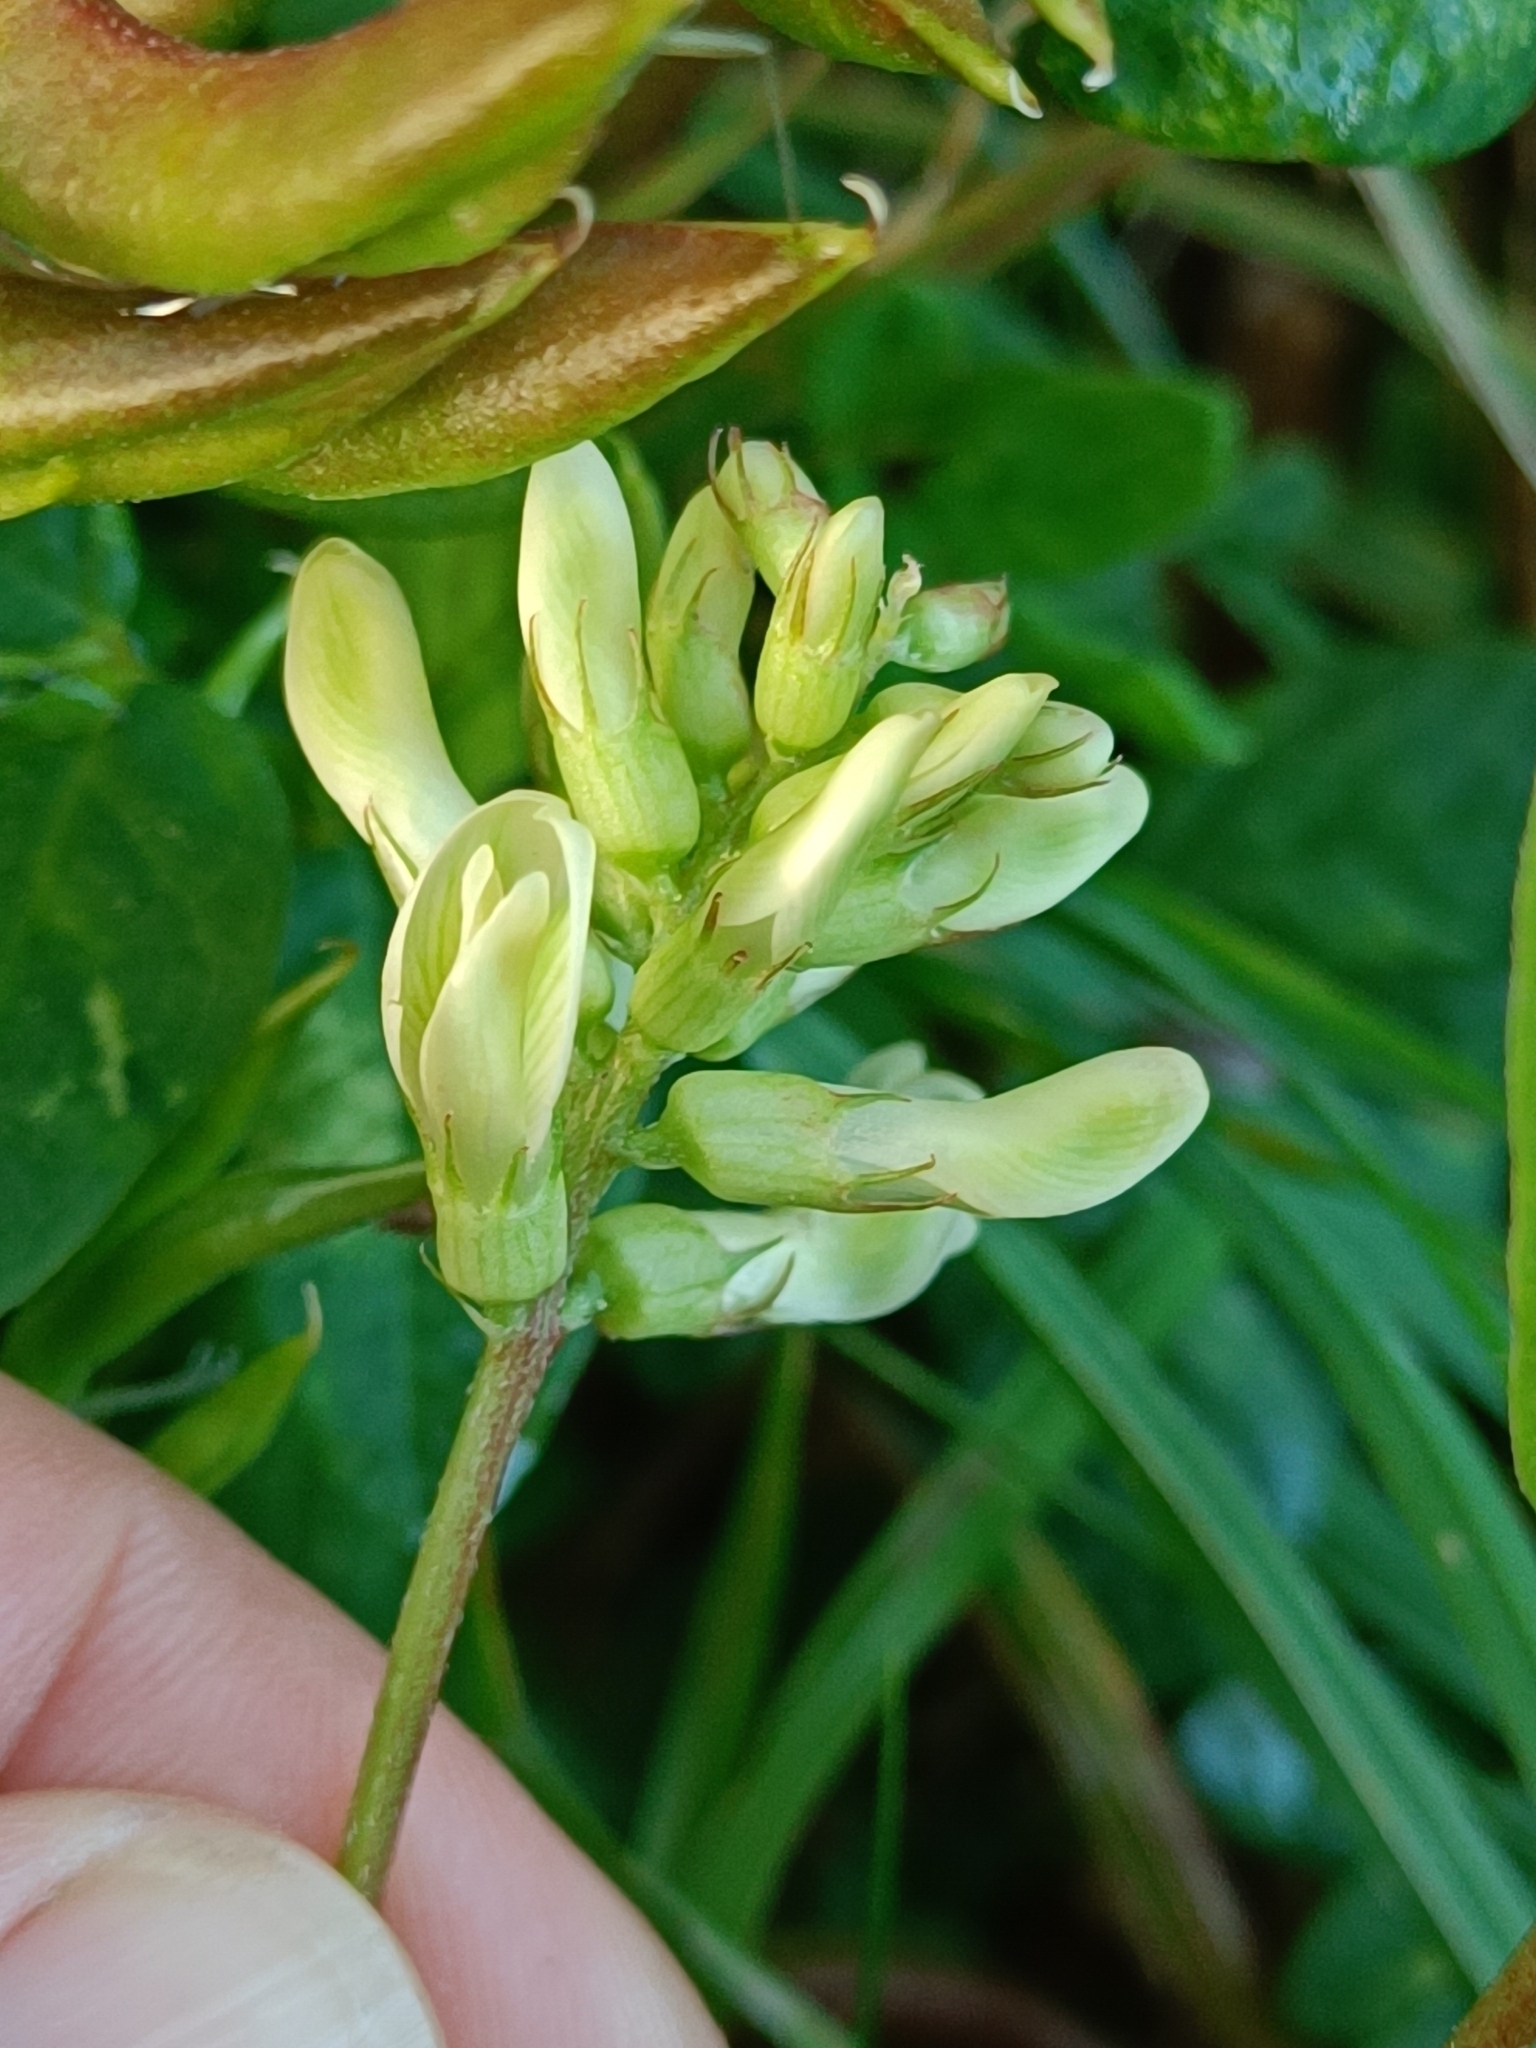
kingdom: Plantae
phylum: Tracheophyta
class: Magnoliopsida
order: Fabales
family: Fabaceae
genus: Astragalus
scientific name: Astragalus glycyphyllos
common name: Wild liquorice
